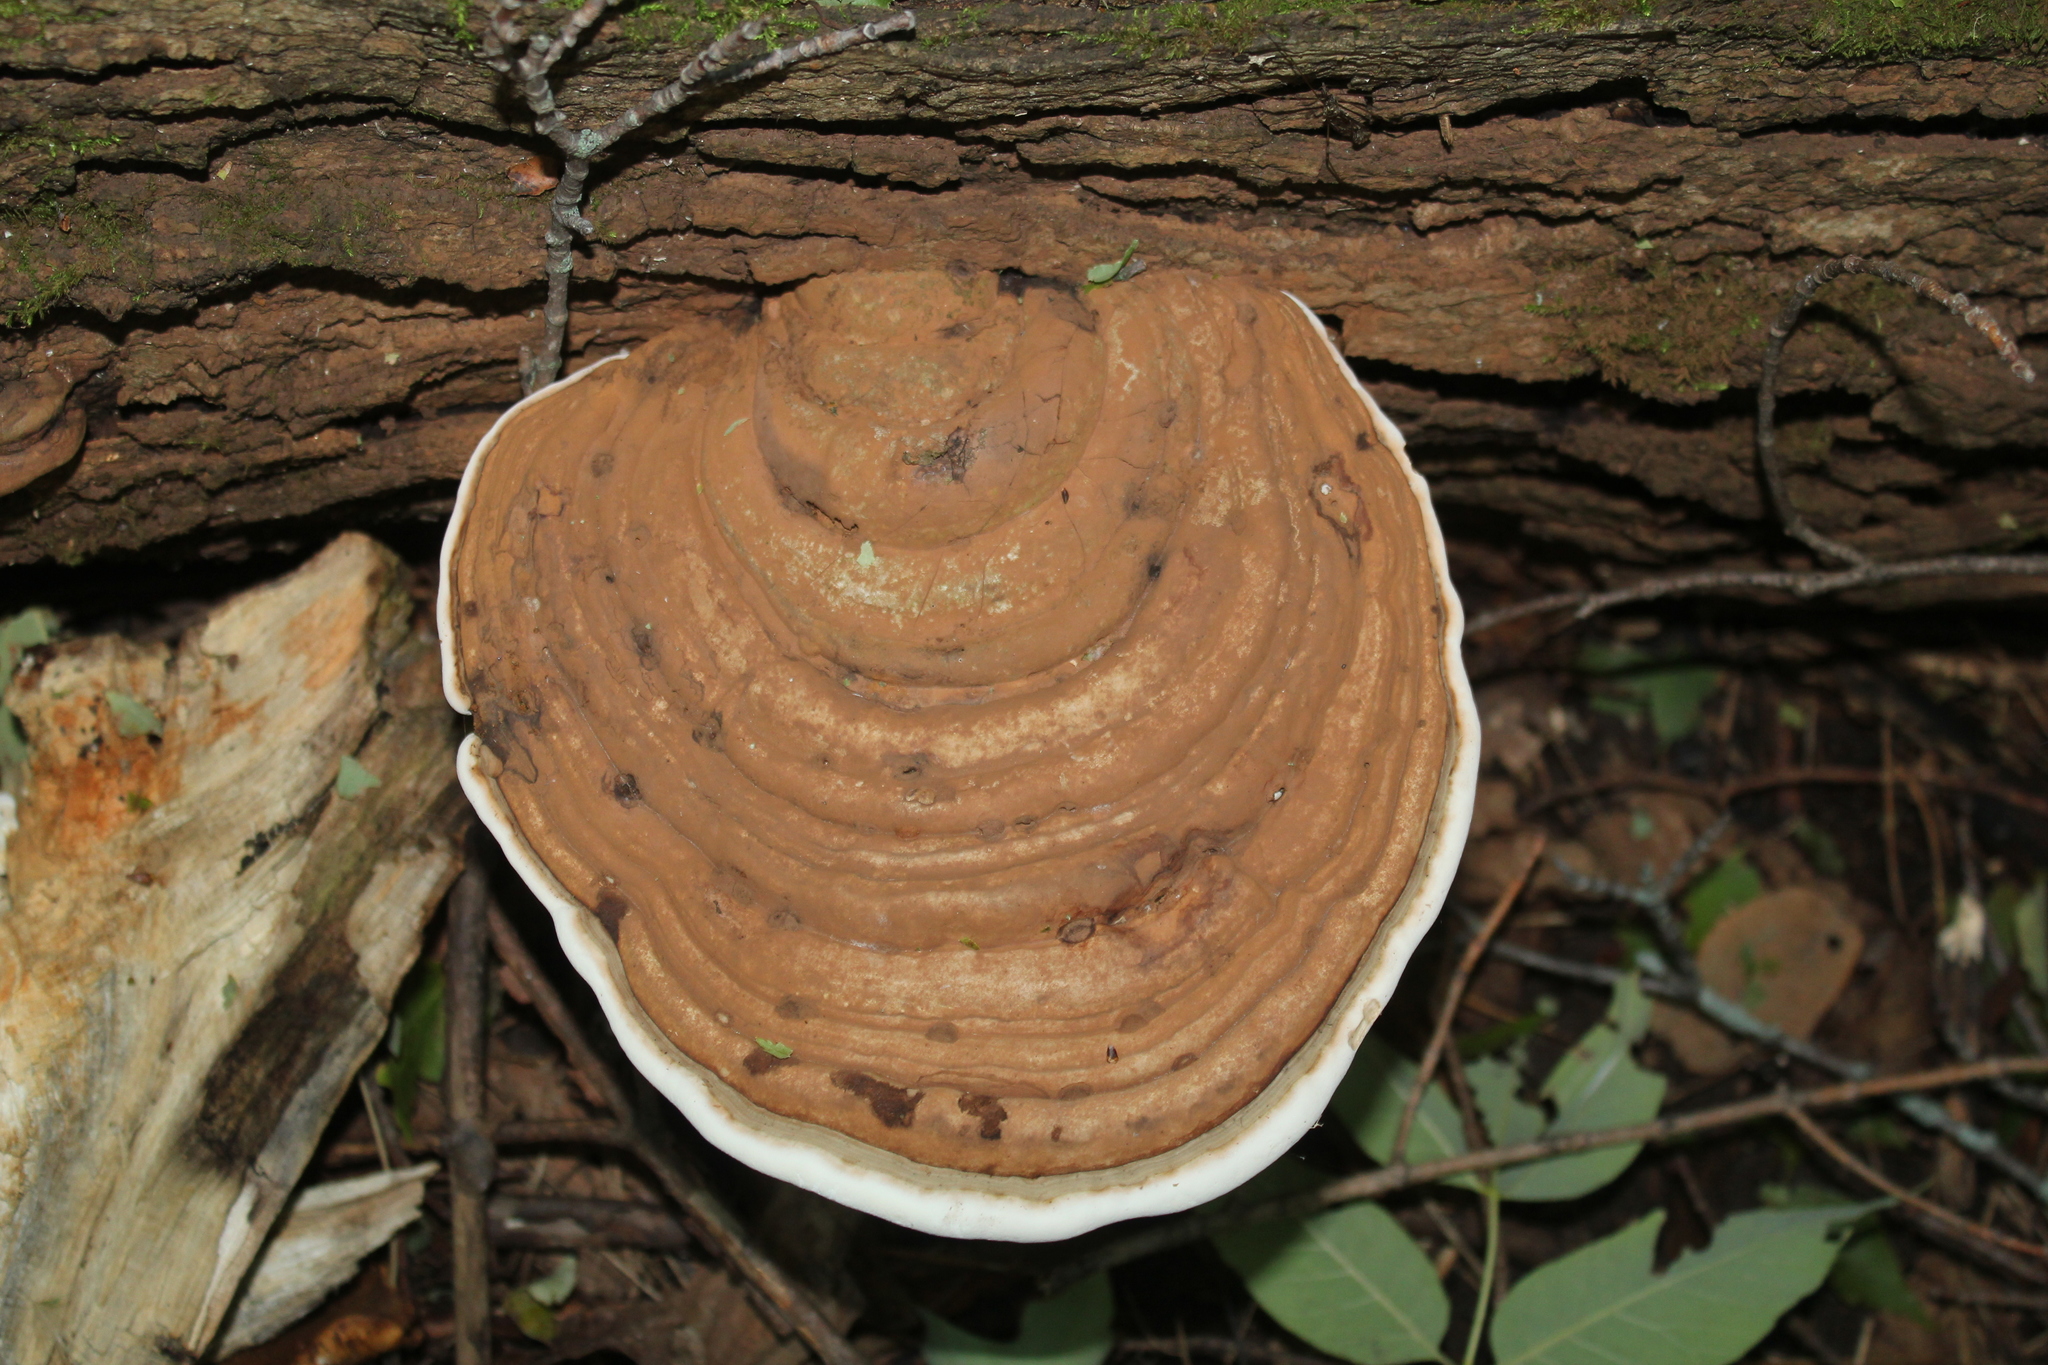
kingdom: Fungi
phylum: Basidiomycota
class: Agaricomycetes
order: Polyporales
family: Polyporaceae
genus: Ganoderma
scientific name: Ganoderma applanatum
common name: Artist's bracket
